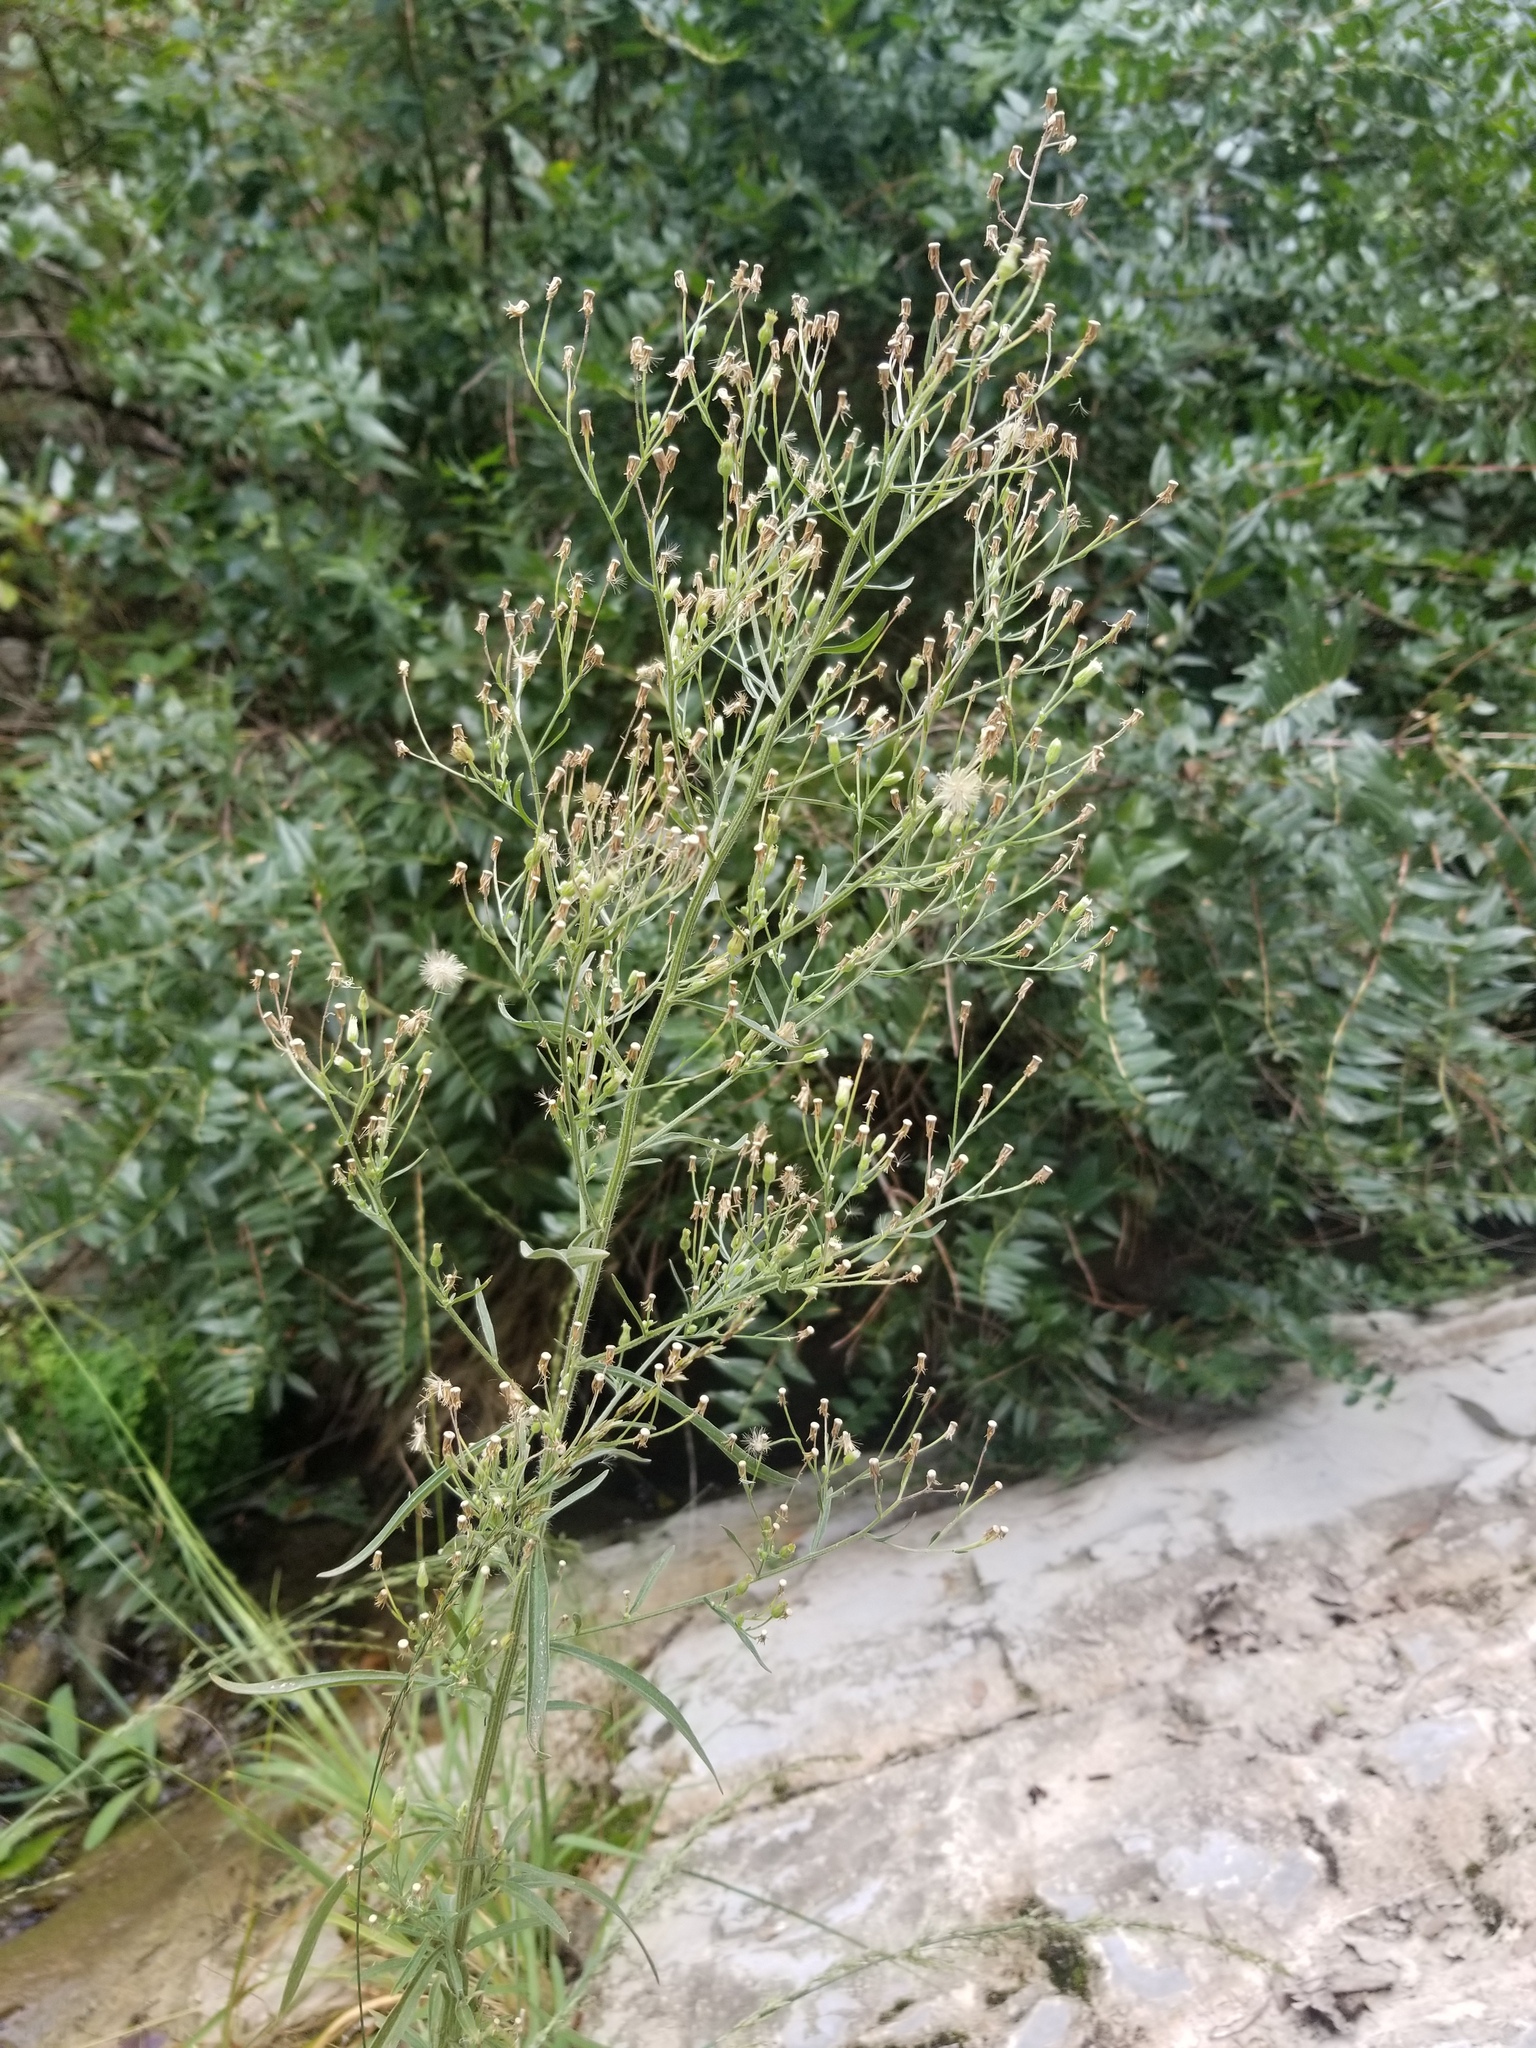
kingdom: Plantae
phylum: Tracheophyta
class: Magnoliopsida
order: Asterales
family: Asteraceae
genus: Erigeron
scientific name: Erigeron canadensis
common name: Canadian fleabane
